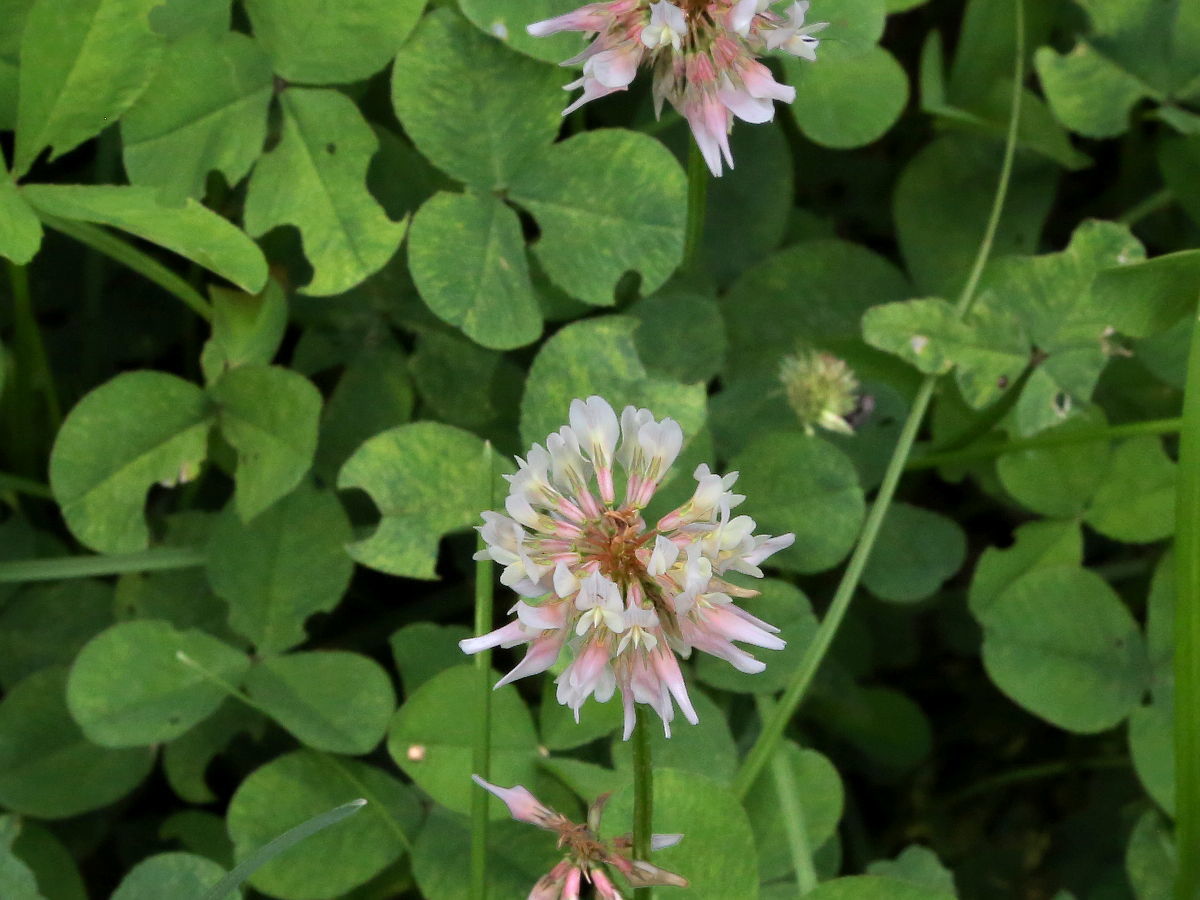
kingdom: Plantae
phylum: Tracheophyta
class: Magnoliopsida
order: Fabales
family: Fabaceae
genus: Trifolium
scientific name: Trifolium repens
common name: White clover
